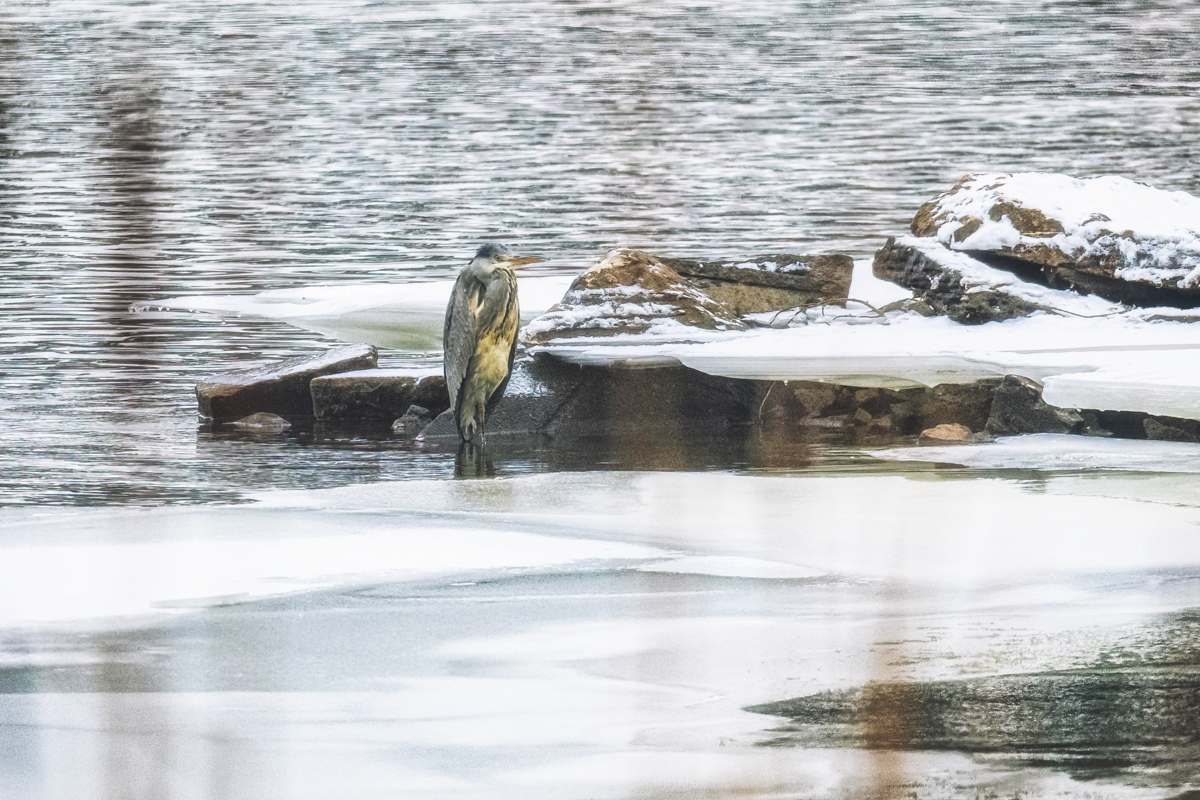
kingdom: Animalia
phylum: Chordata
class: Aves
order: Pelecaniformes
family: Ardeidae
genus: Ardea
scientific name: Ardea cinerea
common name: Grey heron
